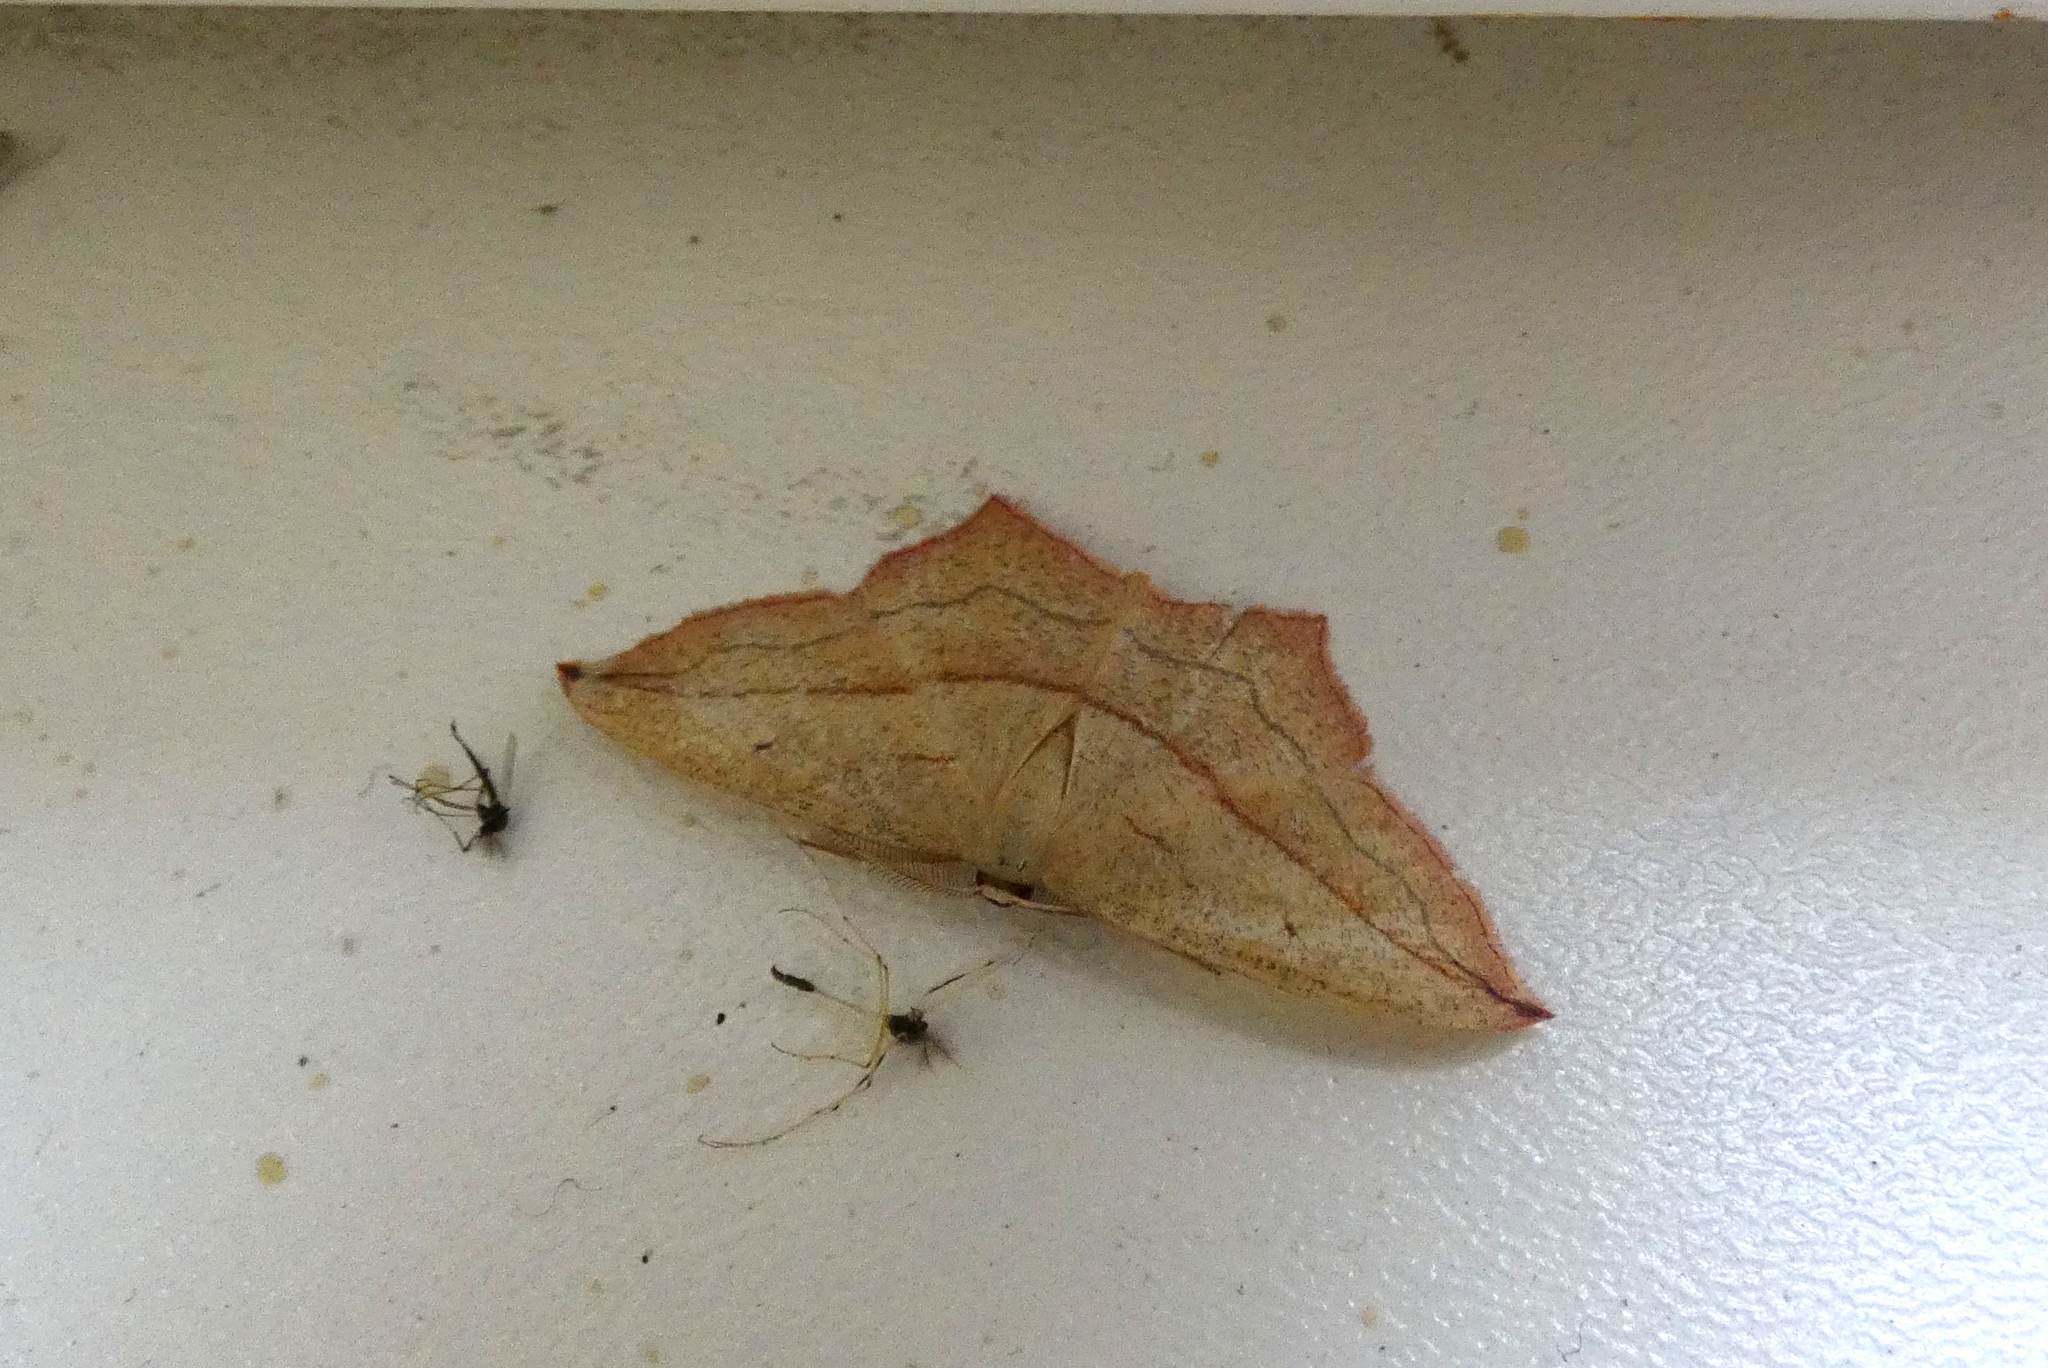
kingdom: Animalia
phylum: Arthropoda
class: Insecta
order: Lepidoptera
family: Geometridae
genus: Timandra
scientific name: Timandra comae
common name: Blood-vein
